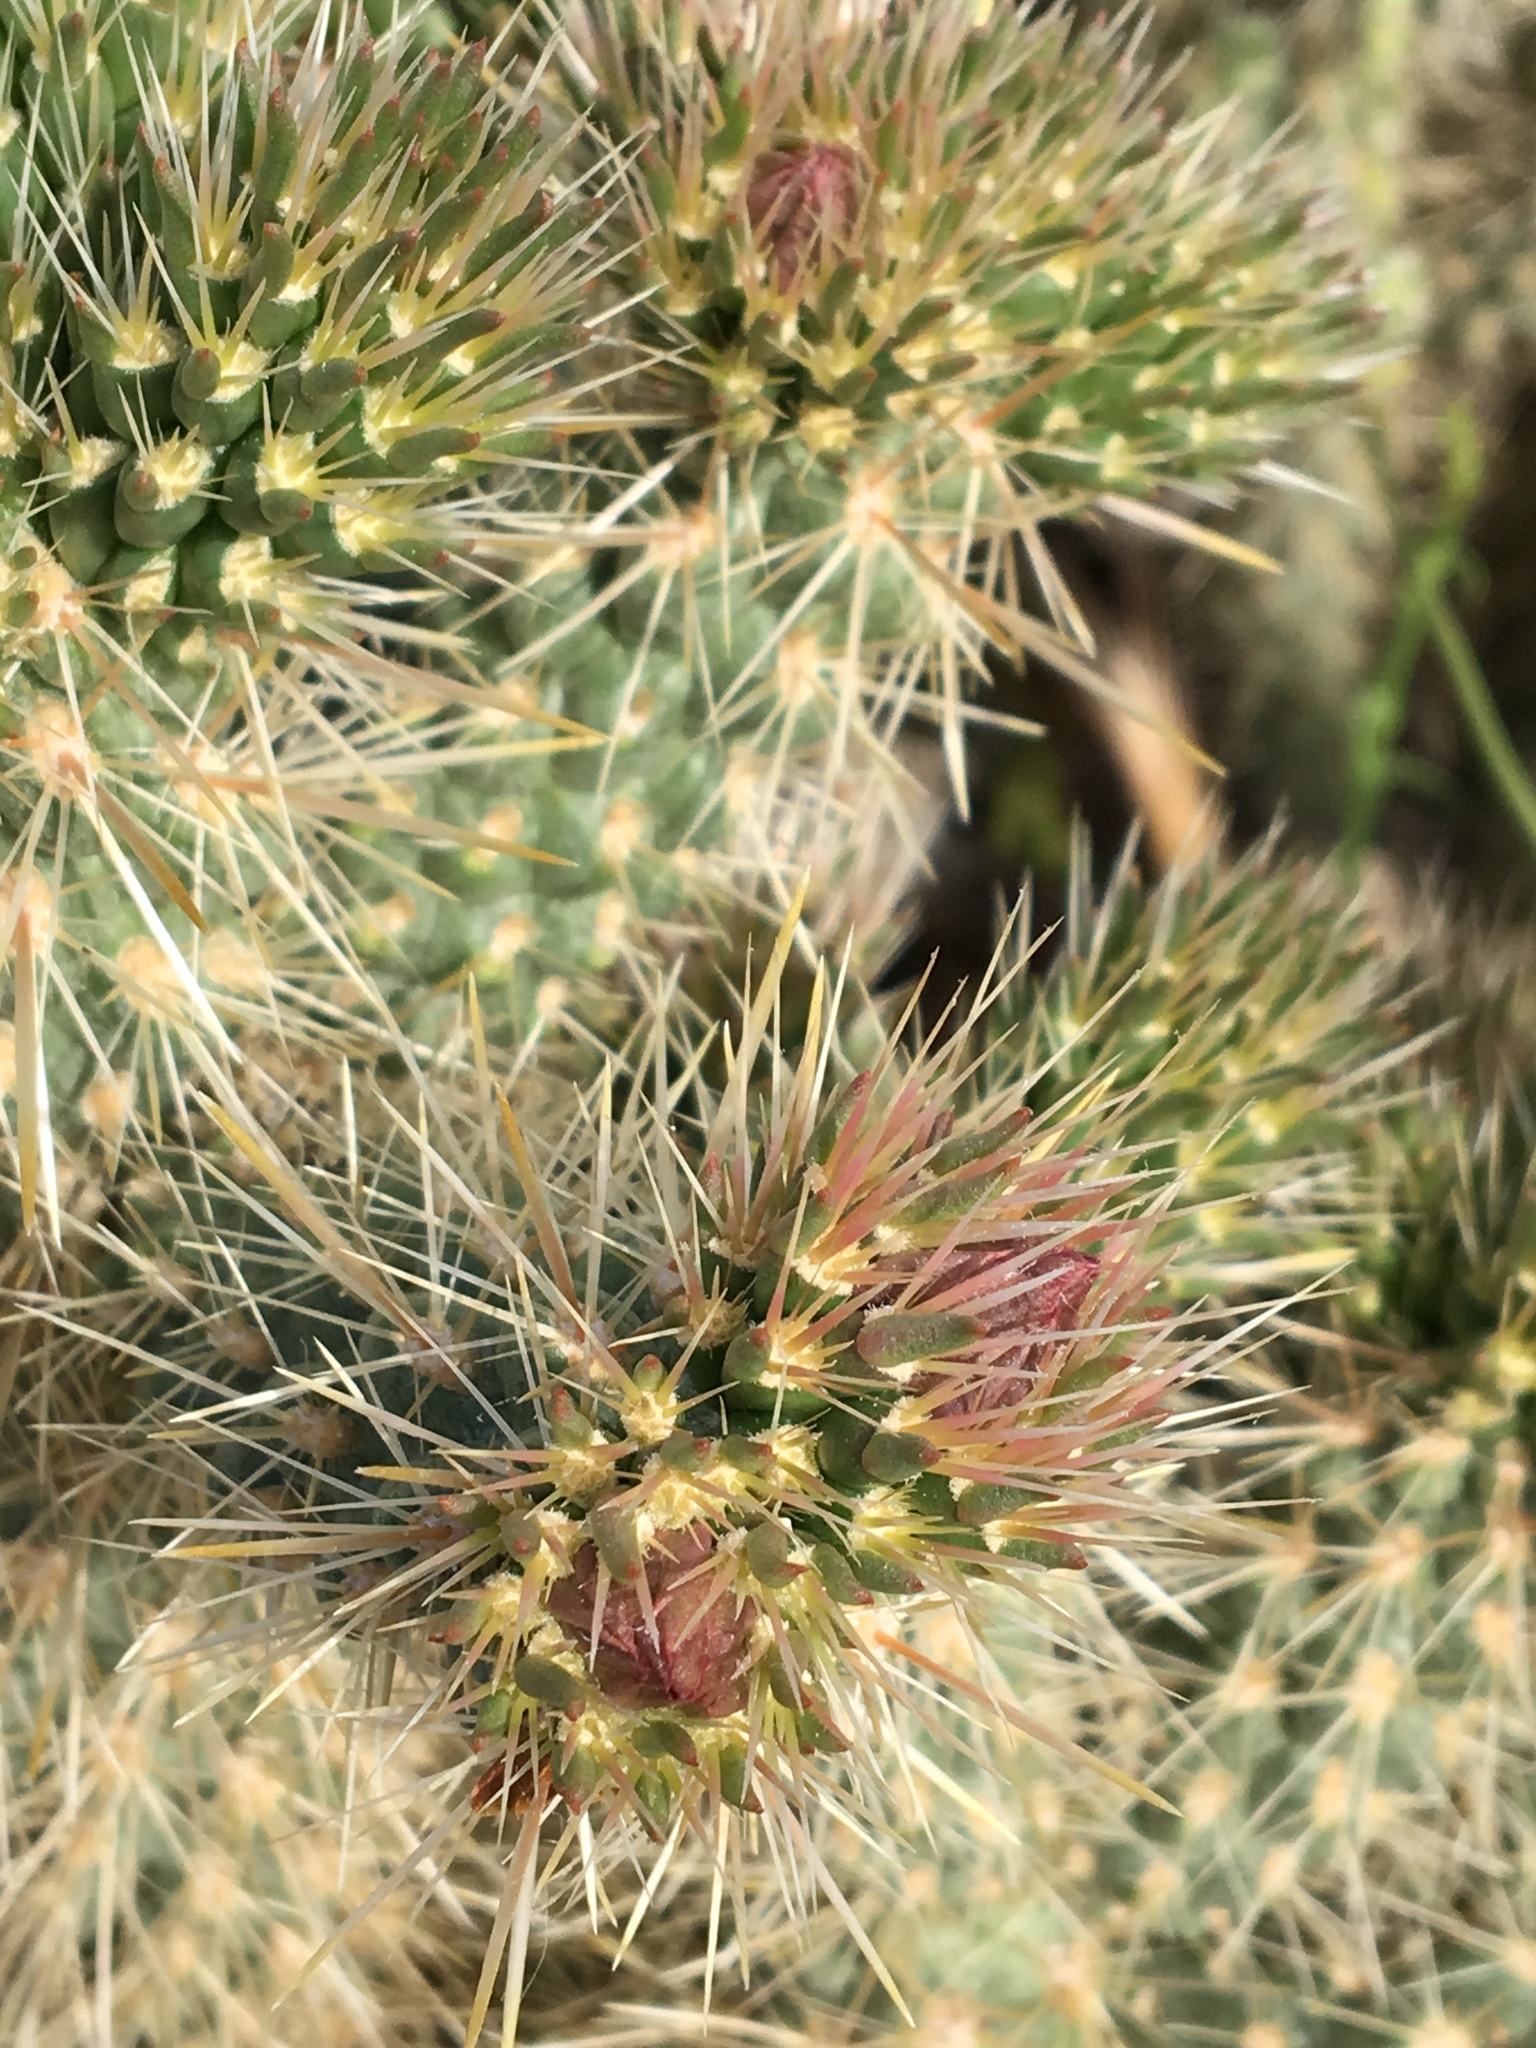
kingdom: Plantae
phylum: Tracheophyta
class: Magnoliopsida
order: Caryophyllales
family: Cactaceae
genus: Cylindropuntia
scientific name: Cylindropuntia echinocarpa
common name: Ground cholla
